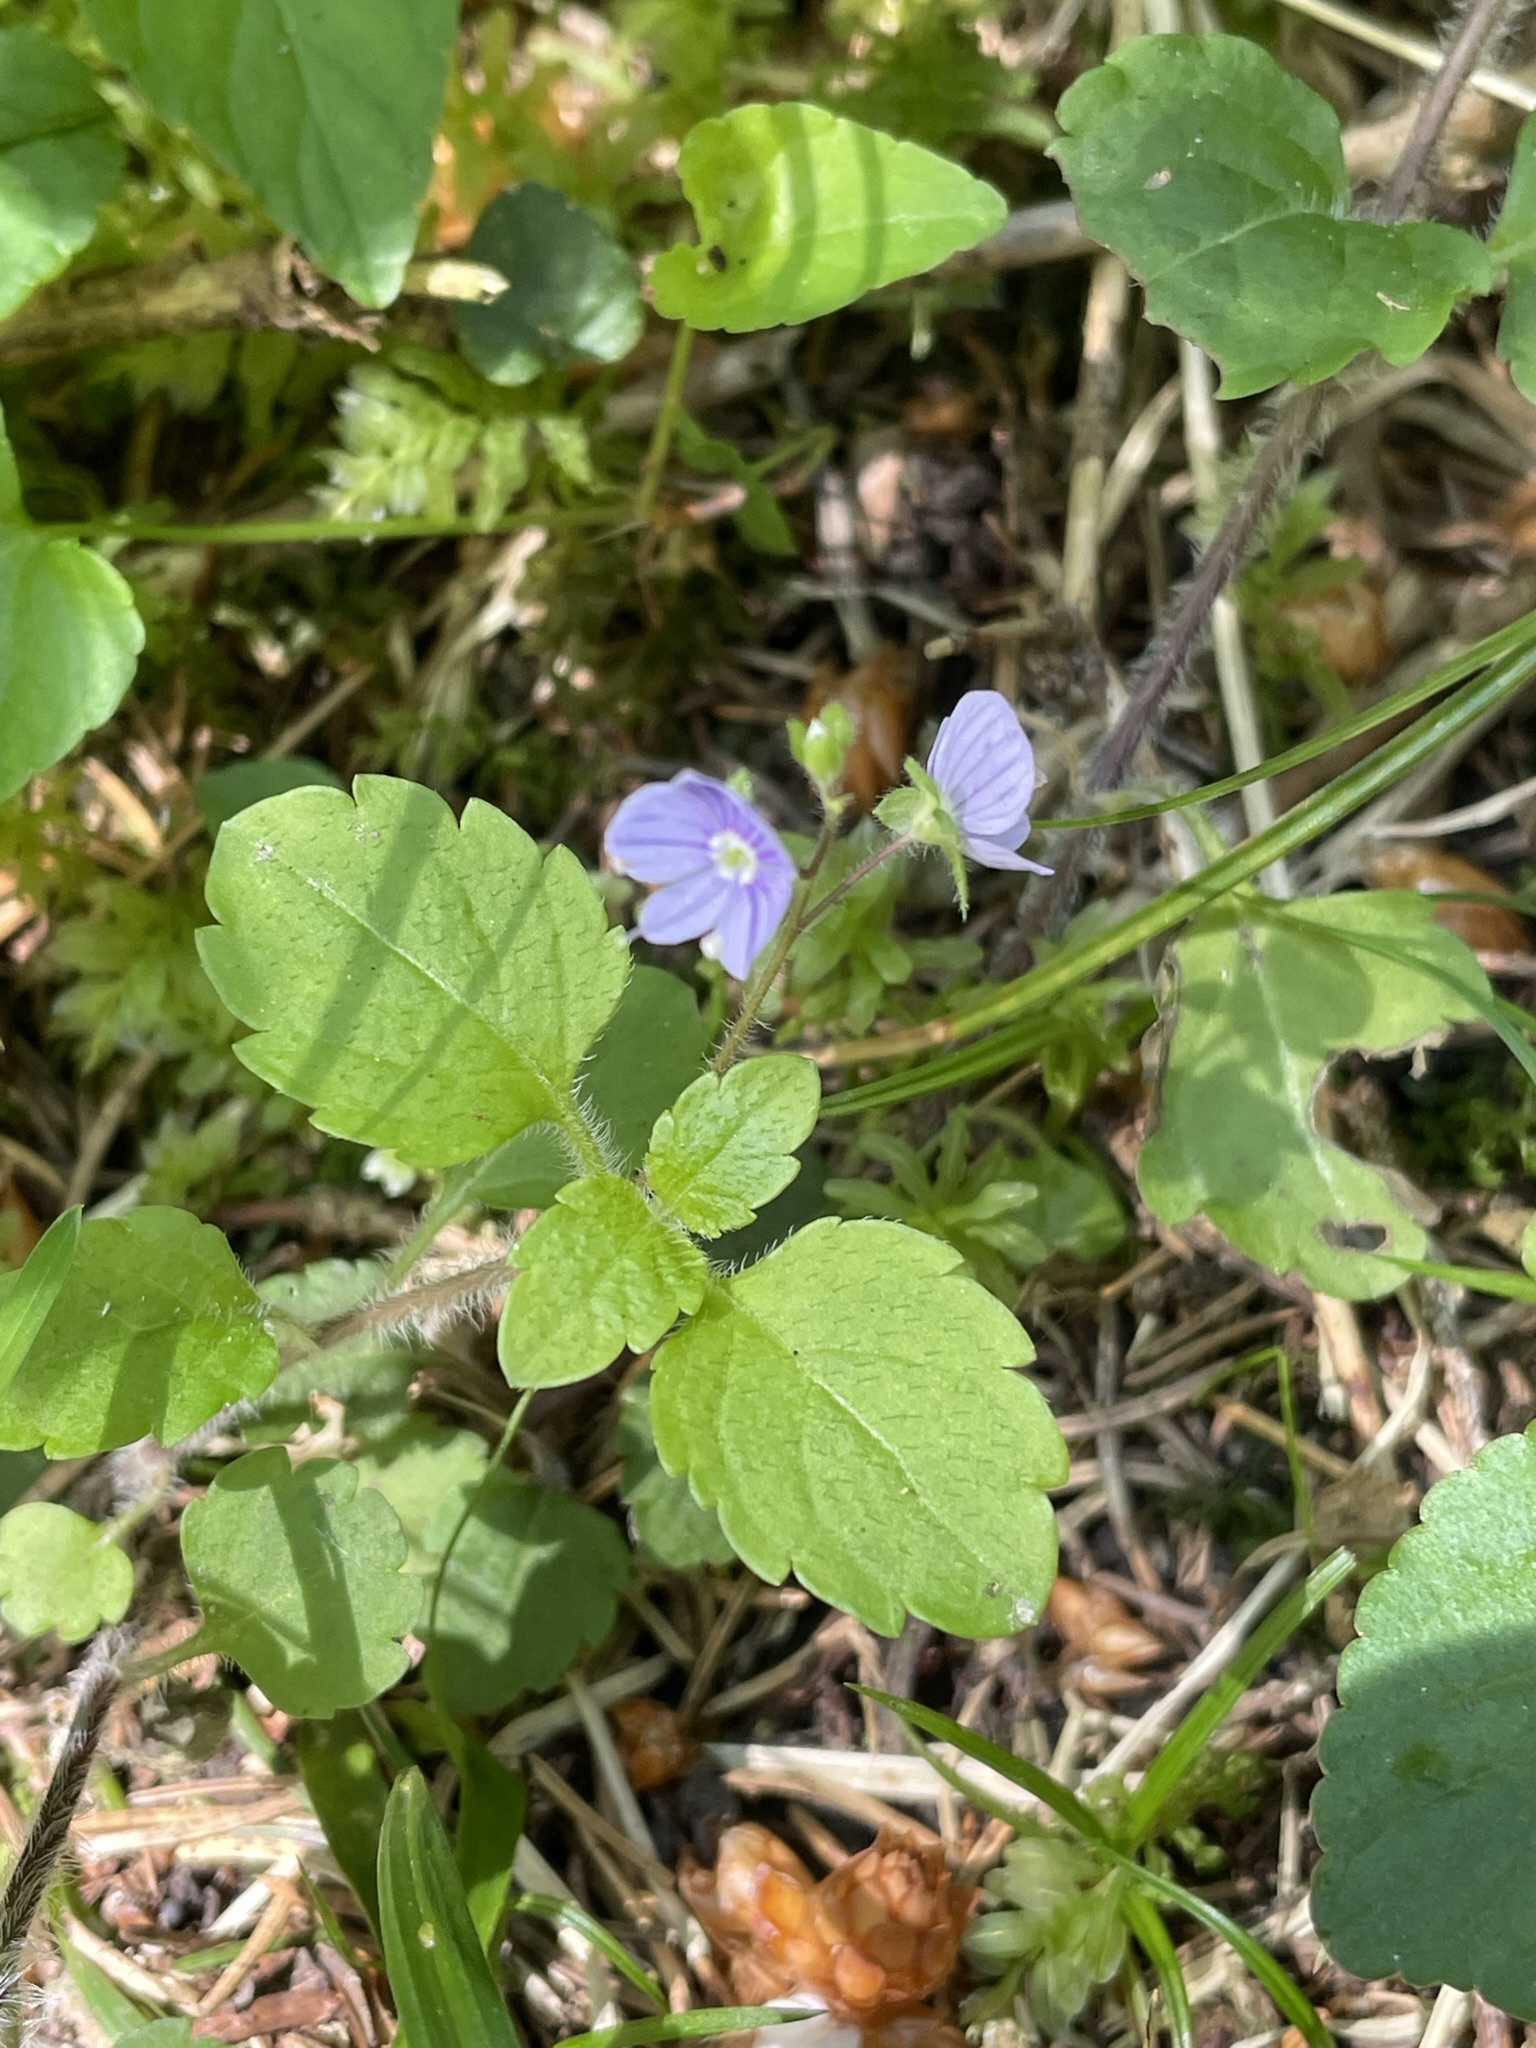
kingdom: Plantae
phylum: Tracheophyta
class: Magnoliopsida
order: Lamiales
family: Plantaginaceae
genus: Veronica
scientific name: Veronica montana
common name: Wood speedwell
